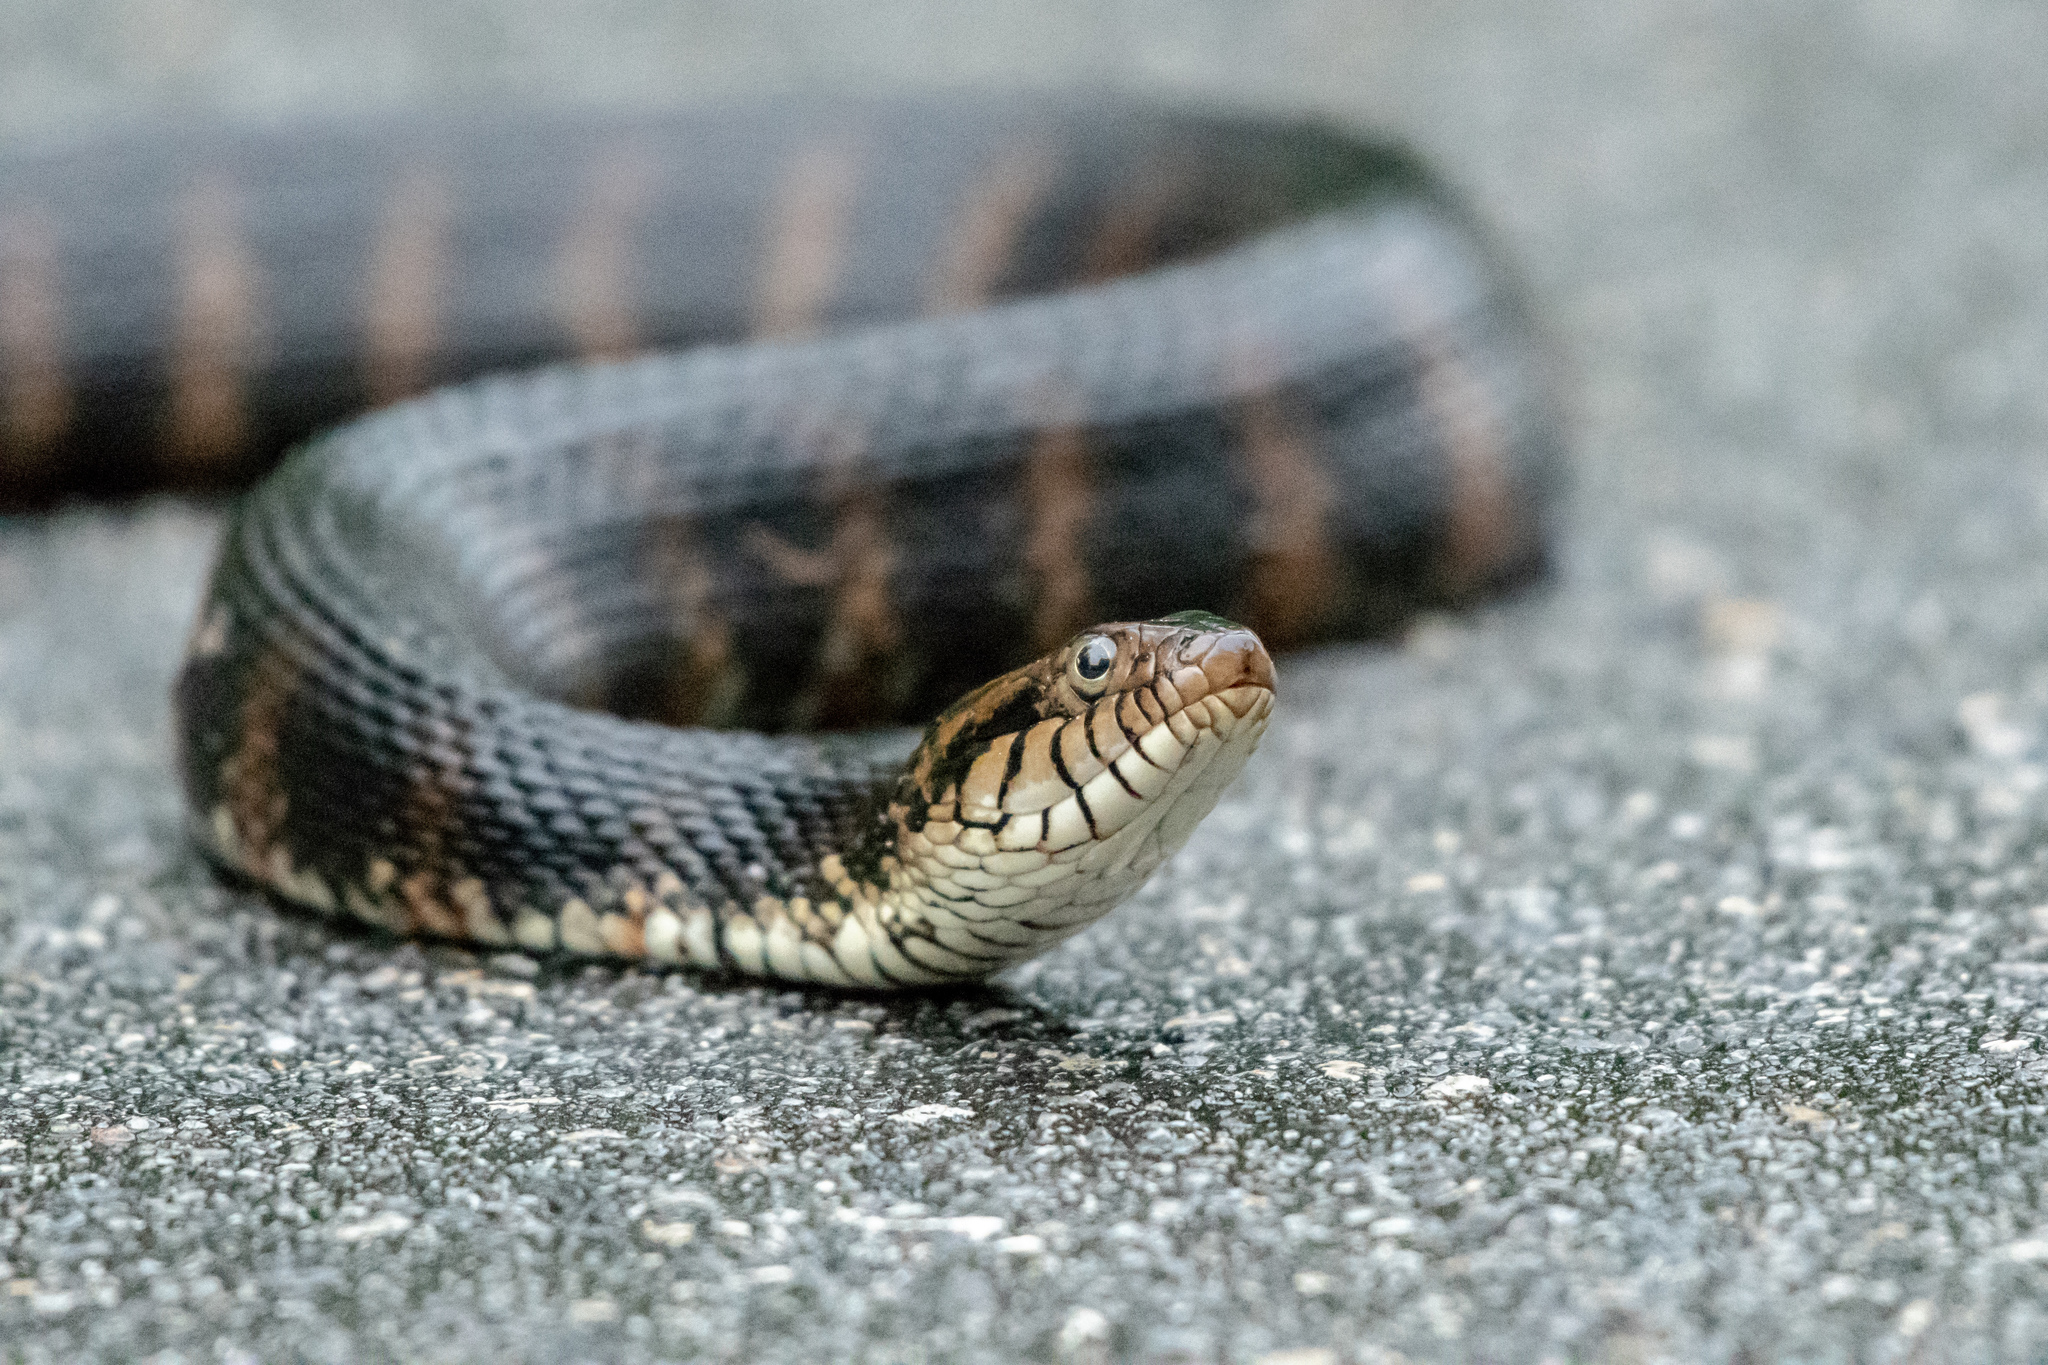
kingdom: Animalia
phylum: Chordata
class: Squamata
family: Colubridae
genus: Nerodia
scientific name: Nerodia fasciata
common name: Southern water snake
